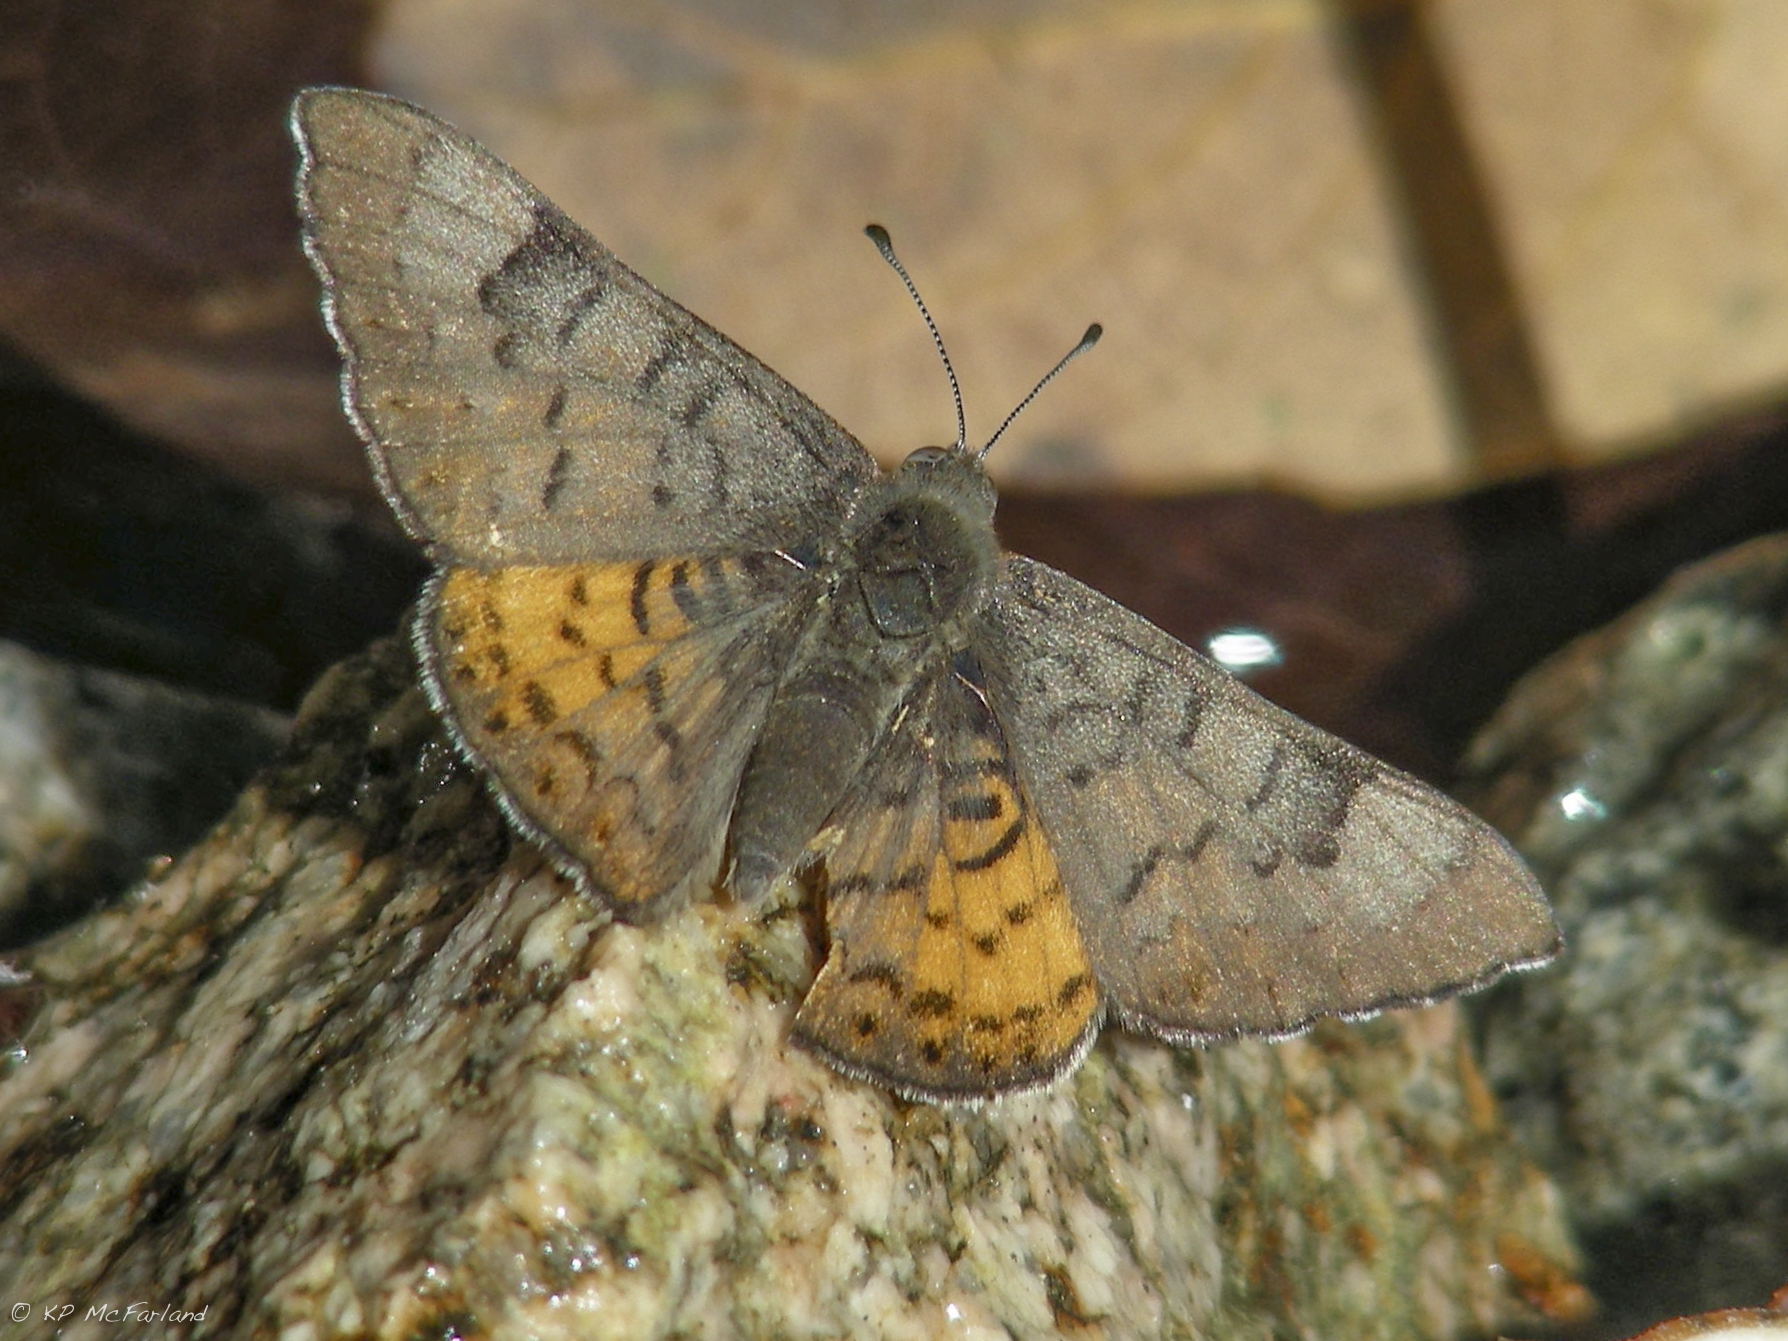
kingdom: Animalia
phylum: Arthropoda
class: Insecta
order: Lepidoptera
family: Riodinidae
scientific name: Riodinidae
